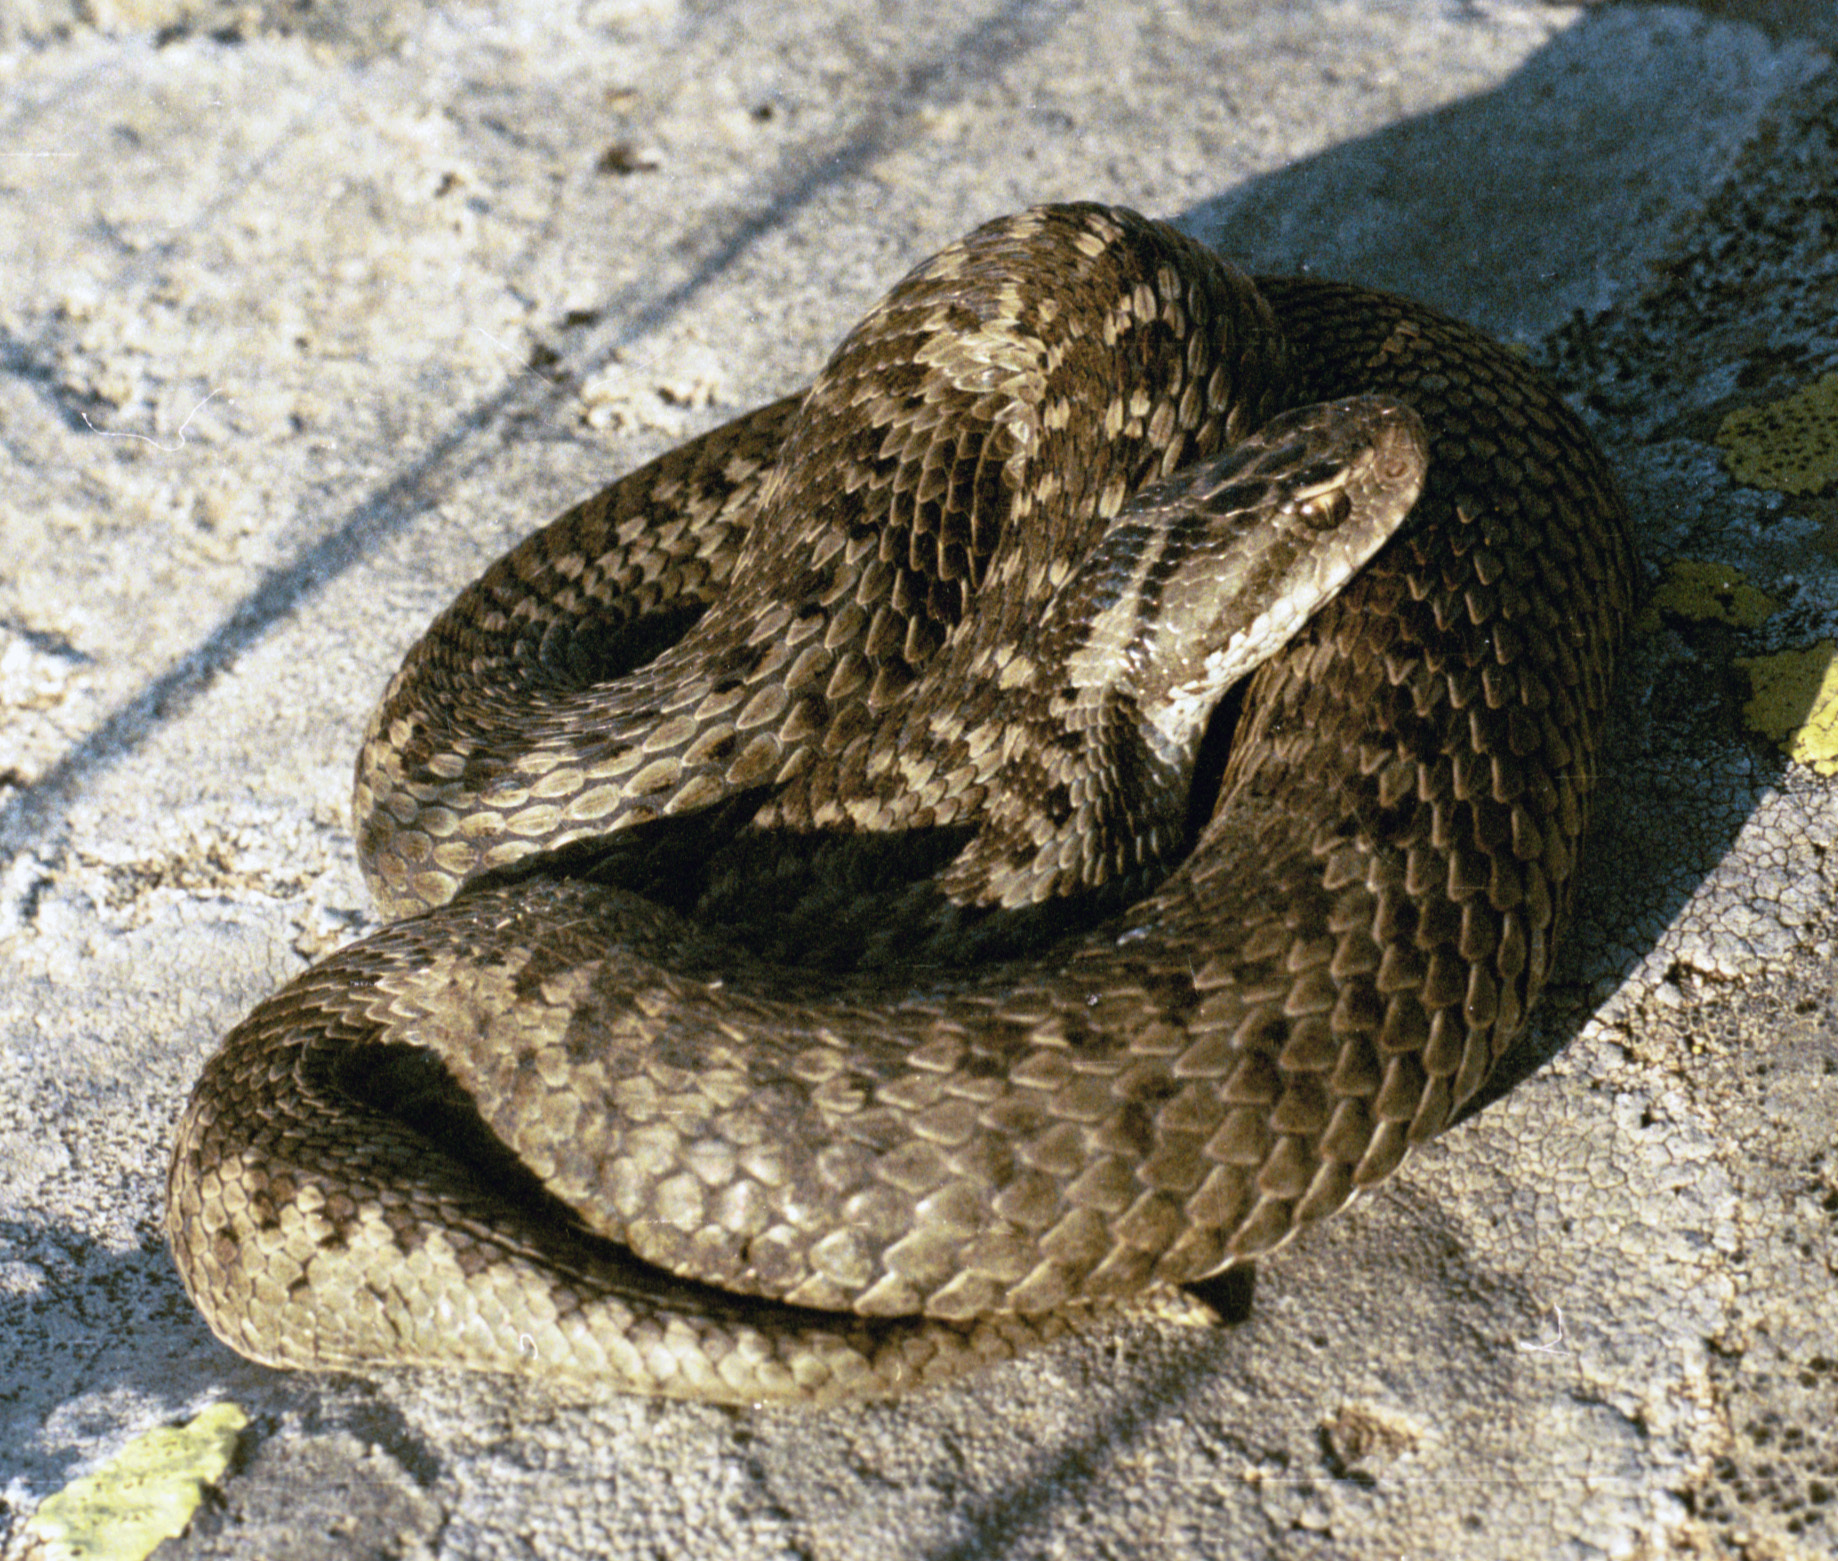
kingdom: Animalia
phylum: Chordata
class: Squamata
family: Viperidae
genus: Vipera
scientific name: Vipera darevskii
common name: Darevsky's viper
